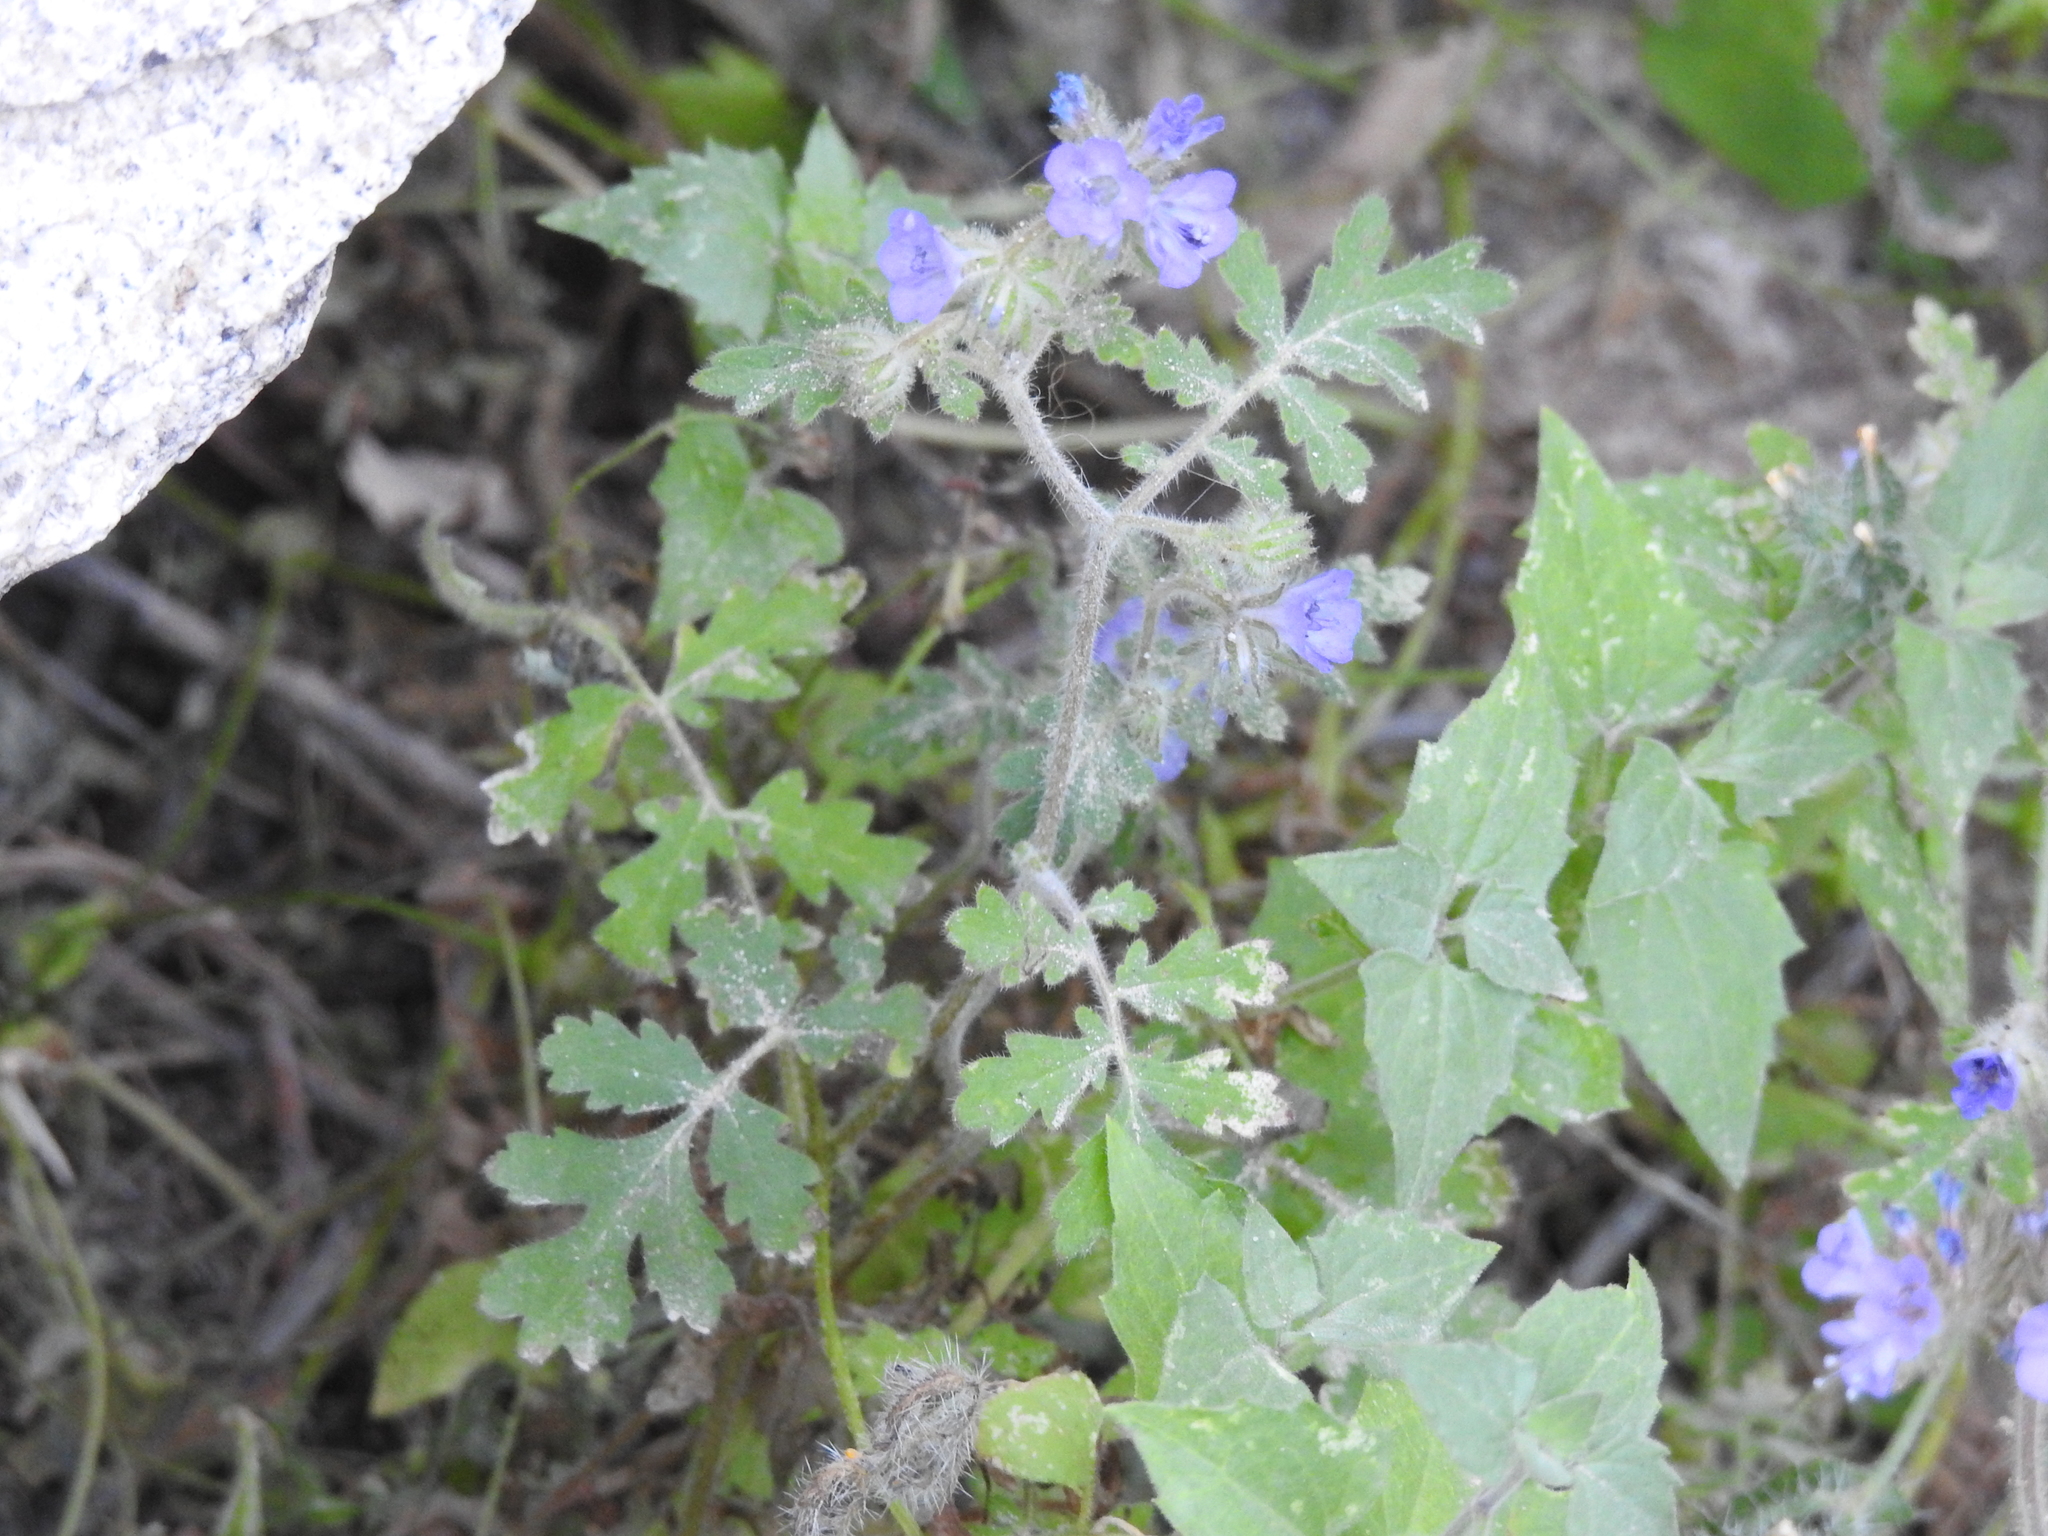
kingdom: Plantae
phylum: Tracheophyta
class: Magnoliopsida
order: Boraginales
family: Hydrophyllaceae
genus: Phacelia
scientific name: Phacelia distans
